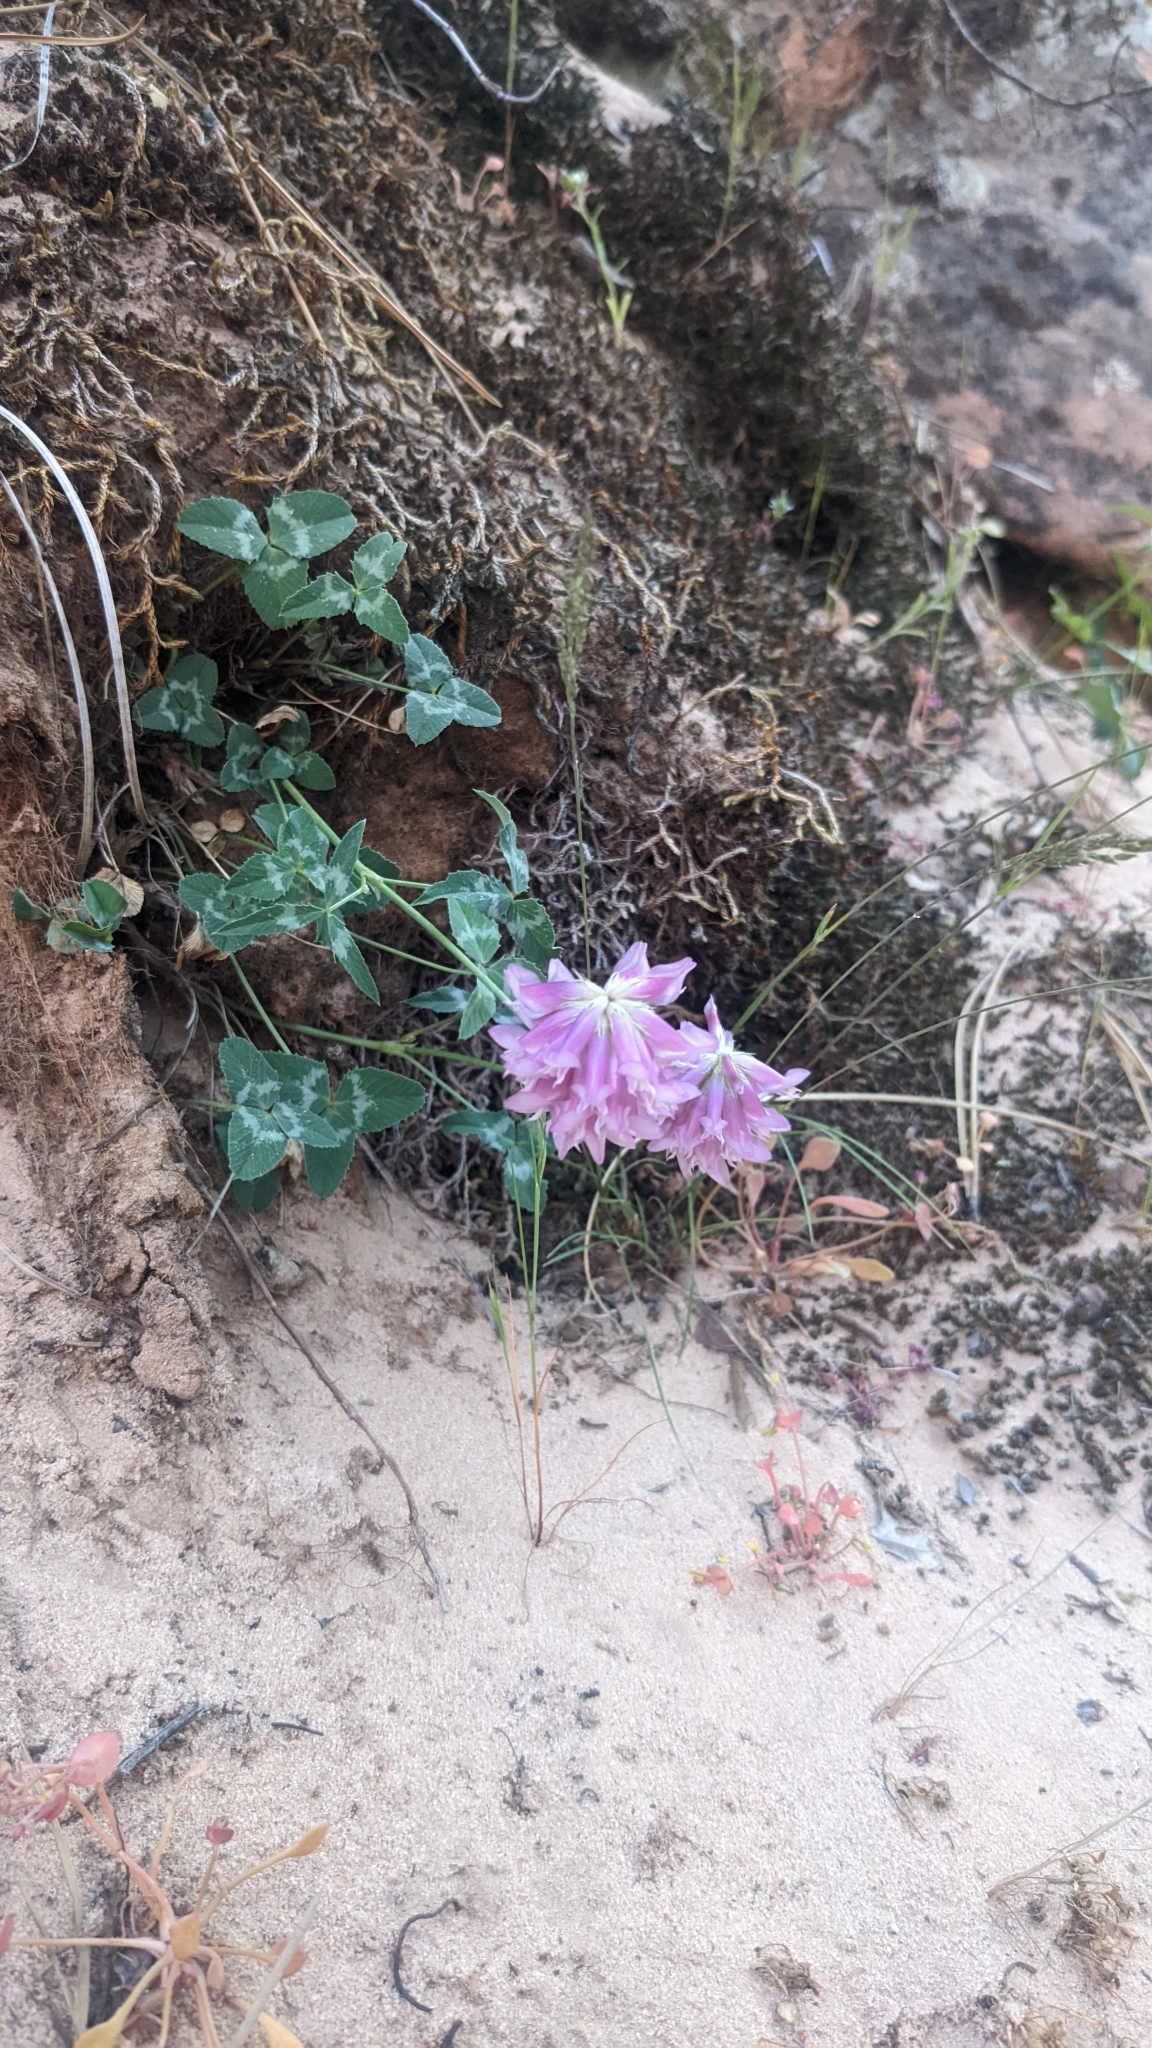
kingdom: Plantae
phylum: Tracheophyta
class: Magnoliopsida
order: Fabales
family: Fabaceae
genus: Trifolium
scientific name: Trifolium kingii
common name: Shasta clover
